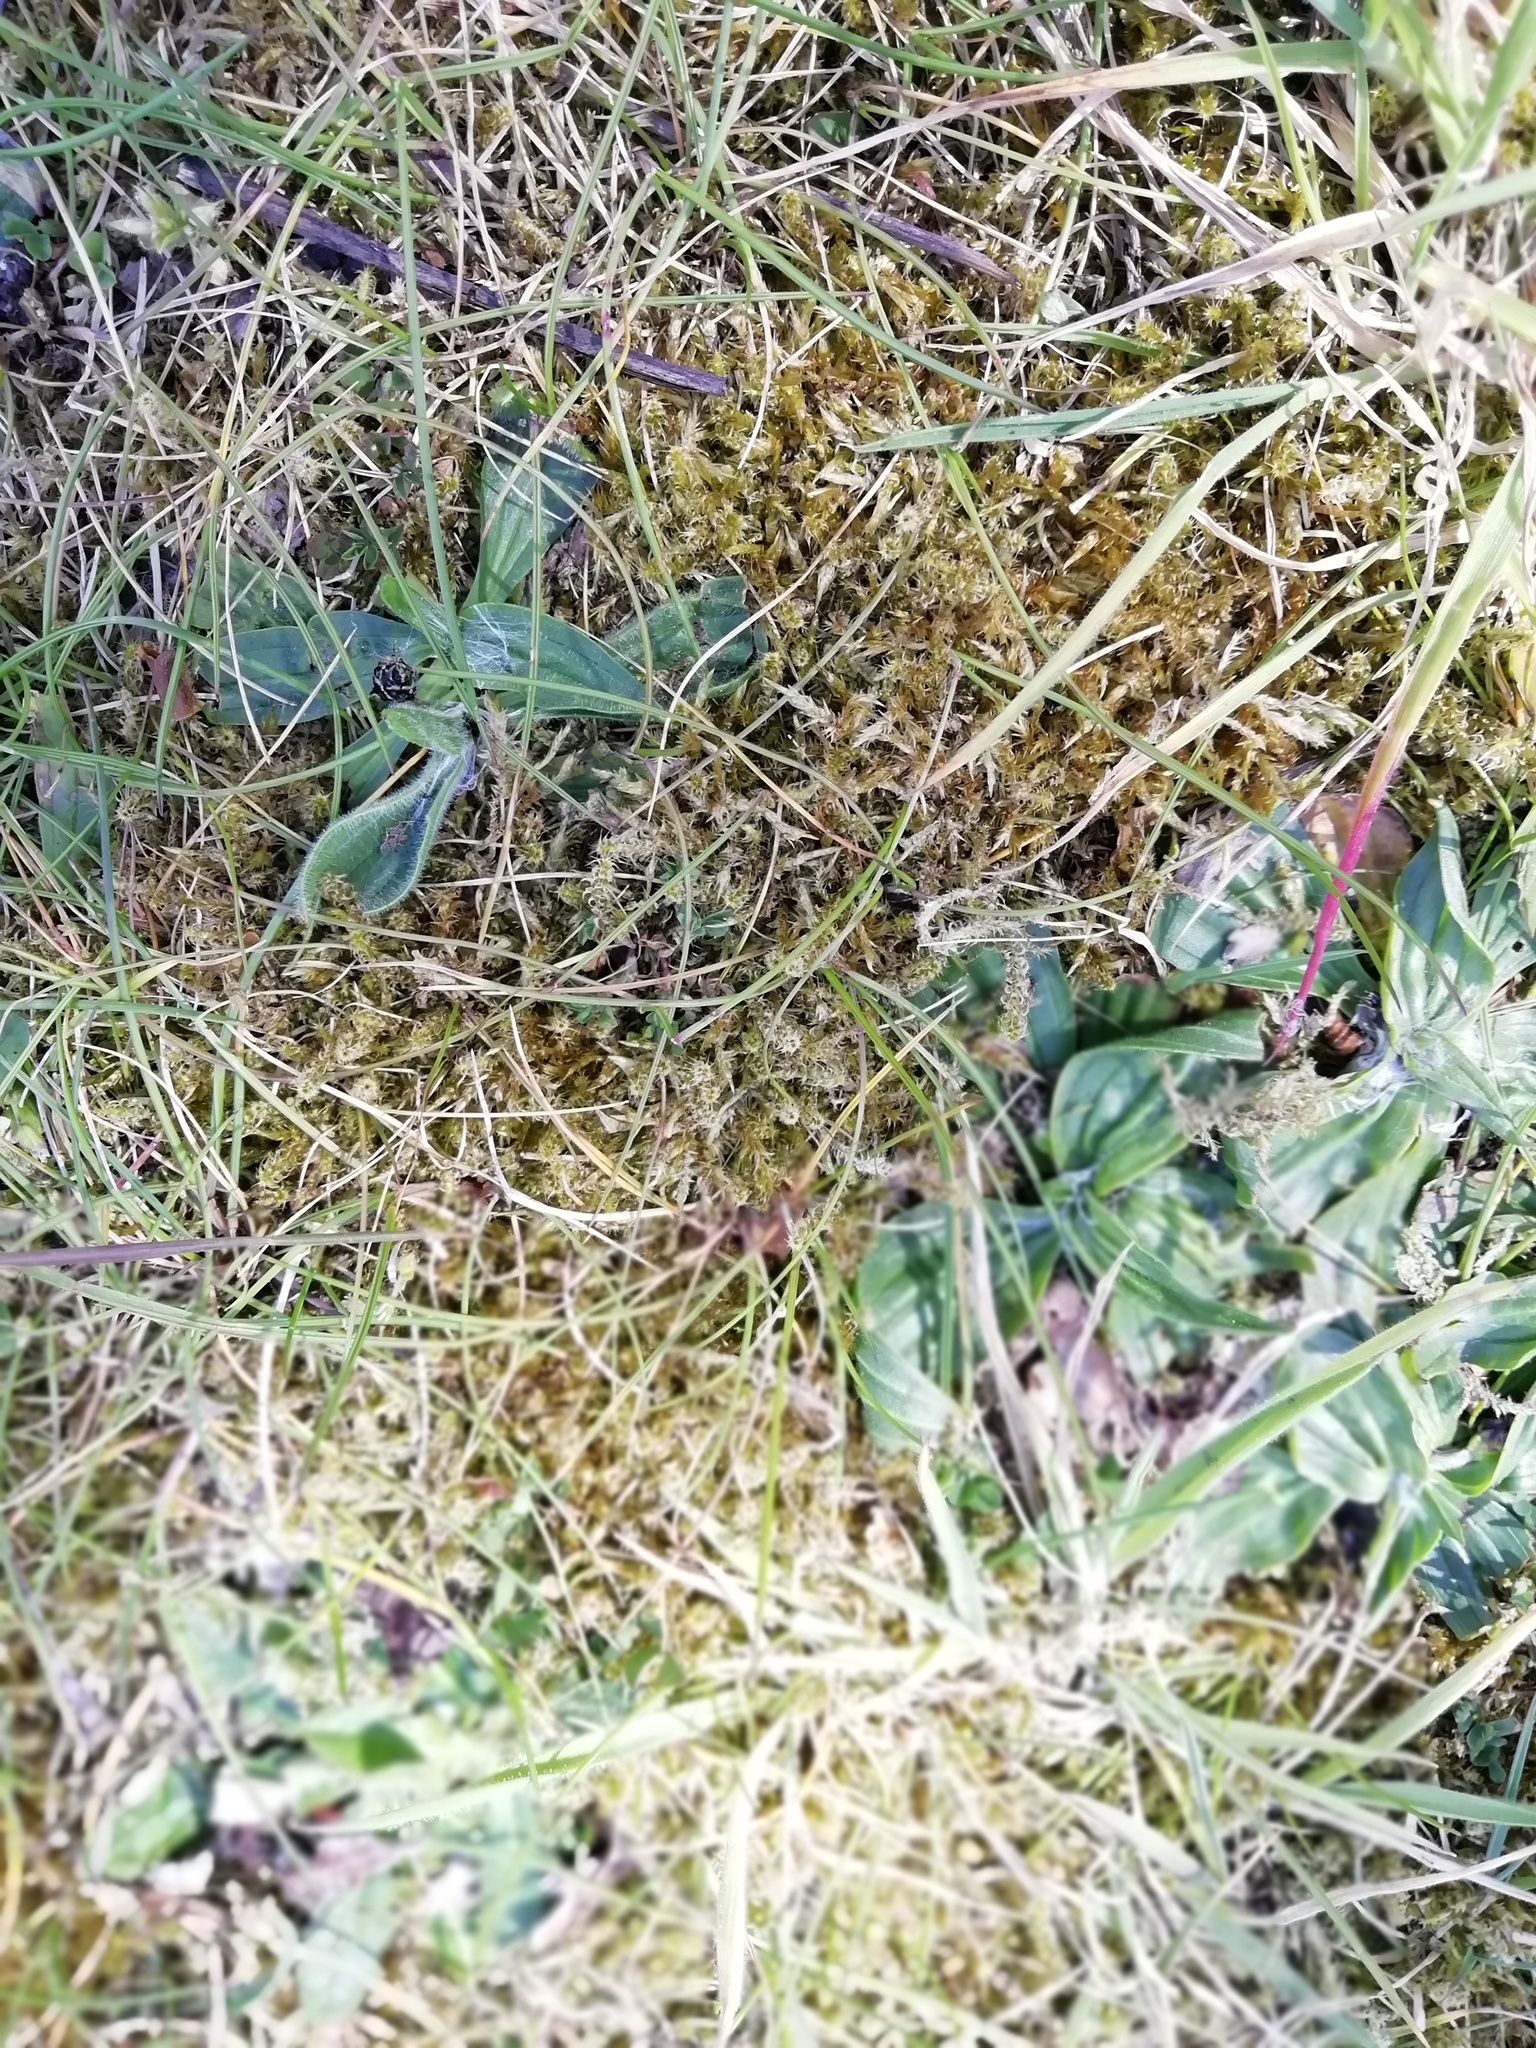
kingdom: Plantae
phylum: Bryophyta
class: Bryopsida
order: Hypnales
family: Hylocomiaceae
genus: Rhytidiadelphus
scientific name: Rhytidiadelphus squarrosus
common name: Springy turf-moss
